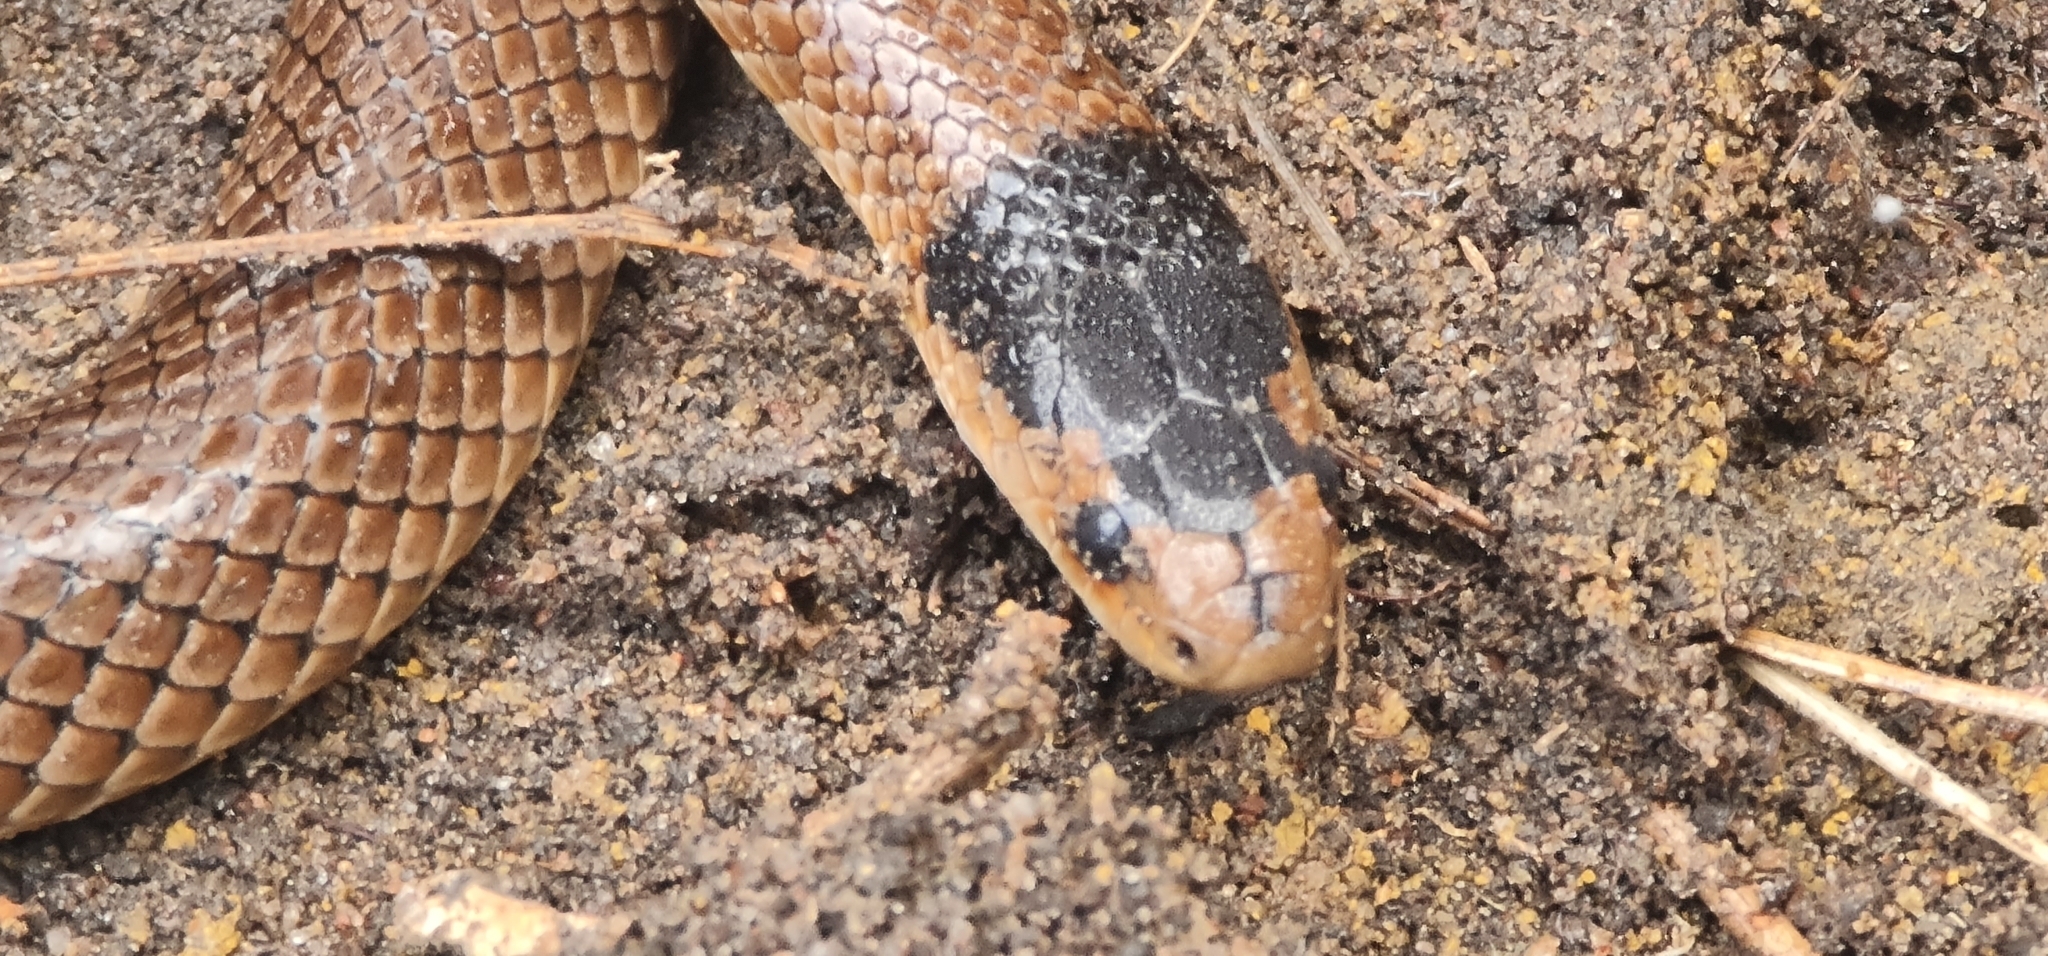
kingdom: Animalia
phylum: Chordata
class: Squamata
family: Elapidae
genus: Suta
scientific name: Suta flagellum
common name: Little whip snake
